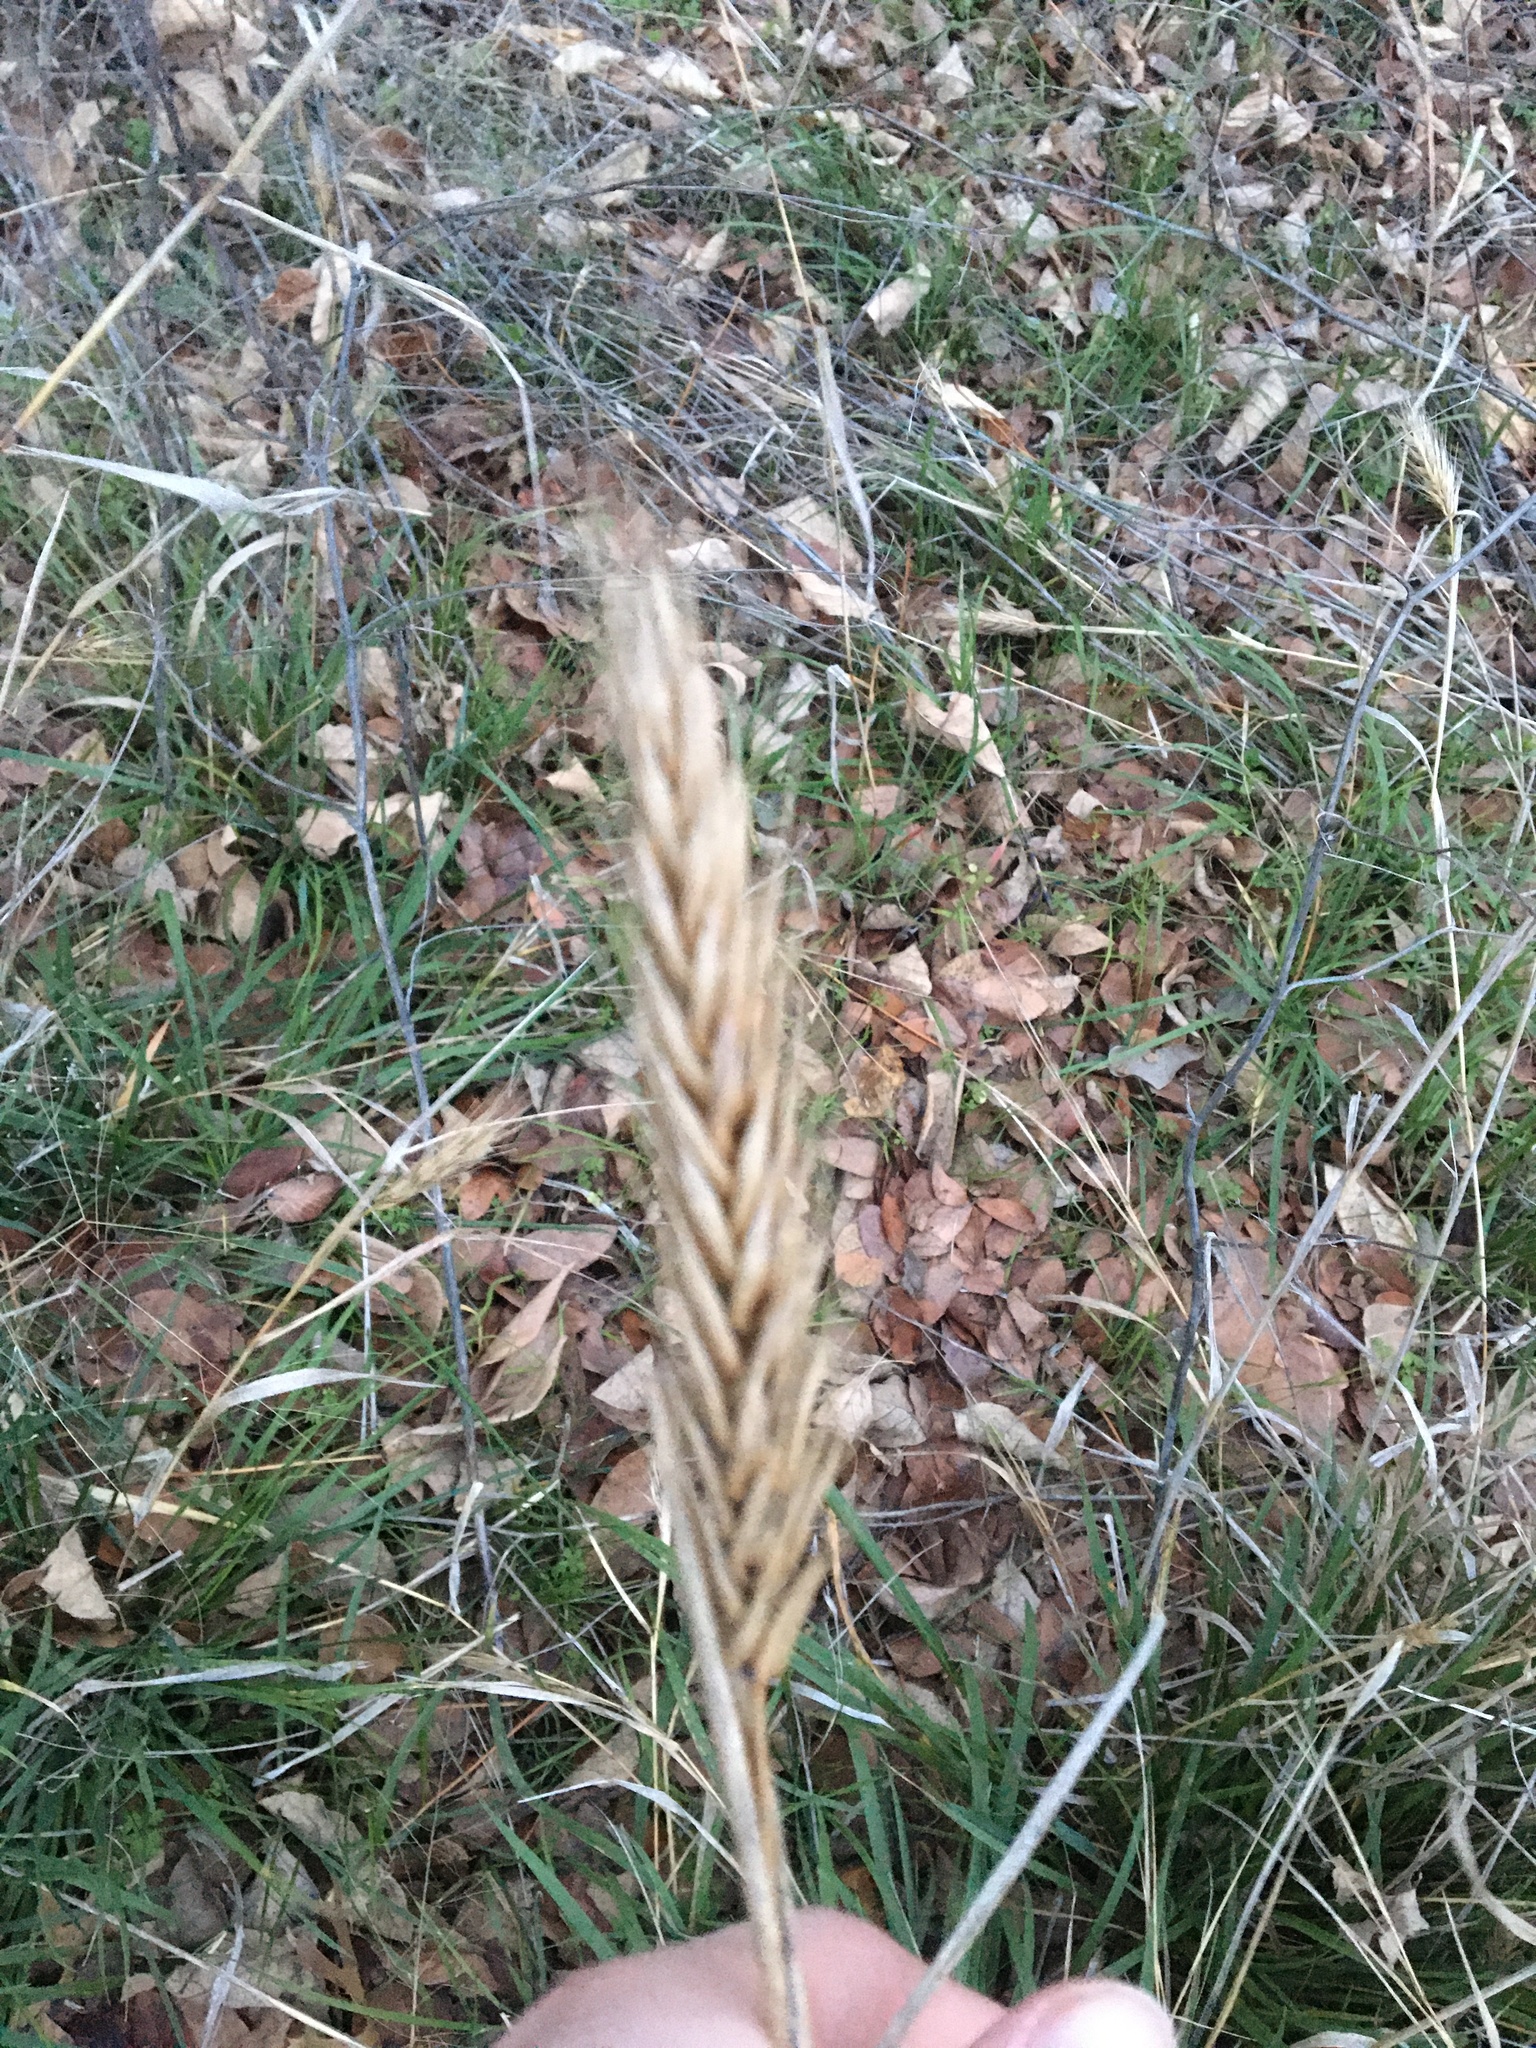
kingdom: Plantae
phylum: Tracheophyta
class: Liliopsida
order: Poales
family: Poaceae
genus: Elymus
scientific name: Elymus virginicus
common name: Common eastern wildrye
